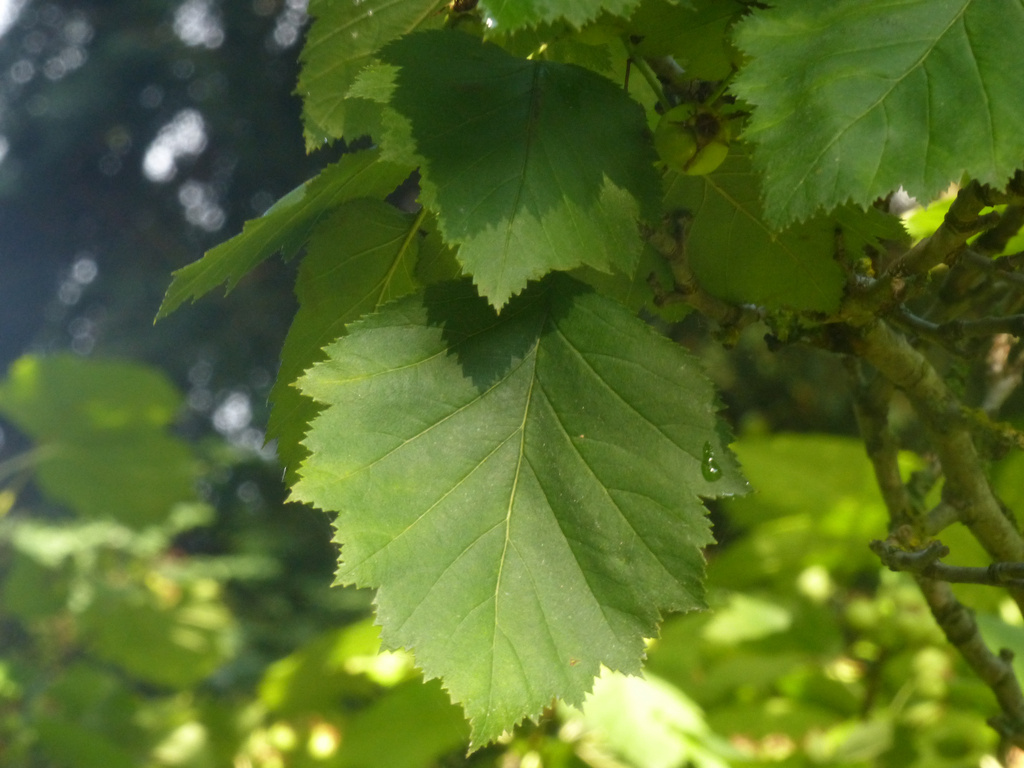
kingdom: Plantae
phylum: Tracheophyta
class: Magnoliopsida
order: Rosales
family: Rosaceae
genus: Torminalis
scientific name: Torminalis glaberrima
